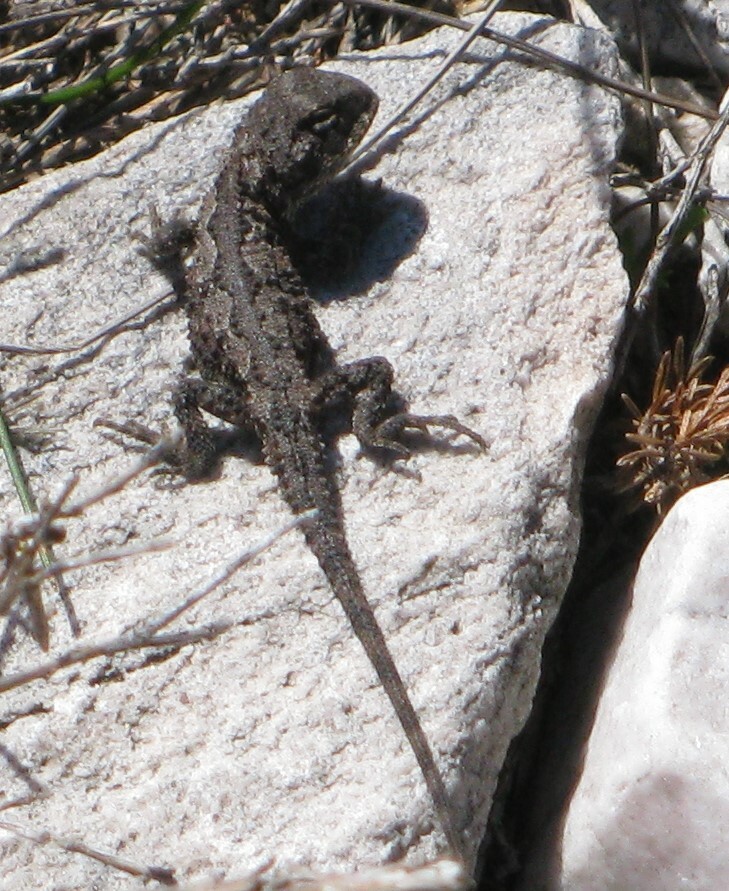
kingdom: Animalia
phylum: Chordata
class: Squamata
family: Agamidae
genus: Rankinia
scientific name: Rankinia diemensis
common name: Mountain dragon
